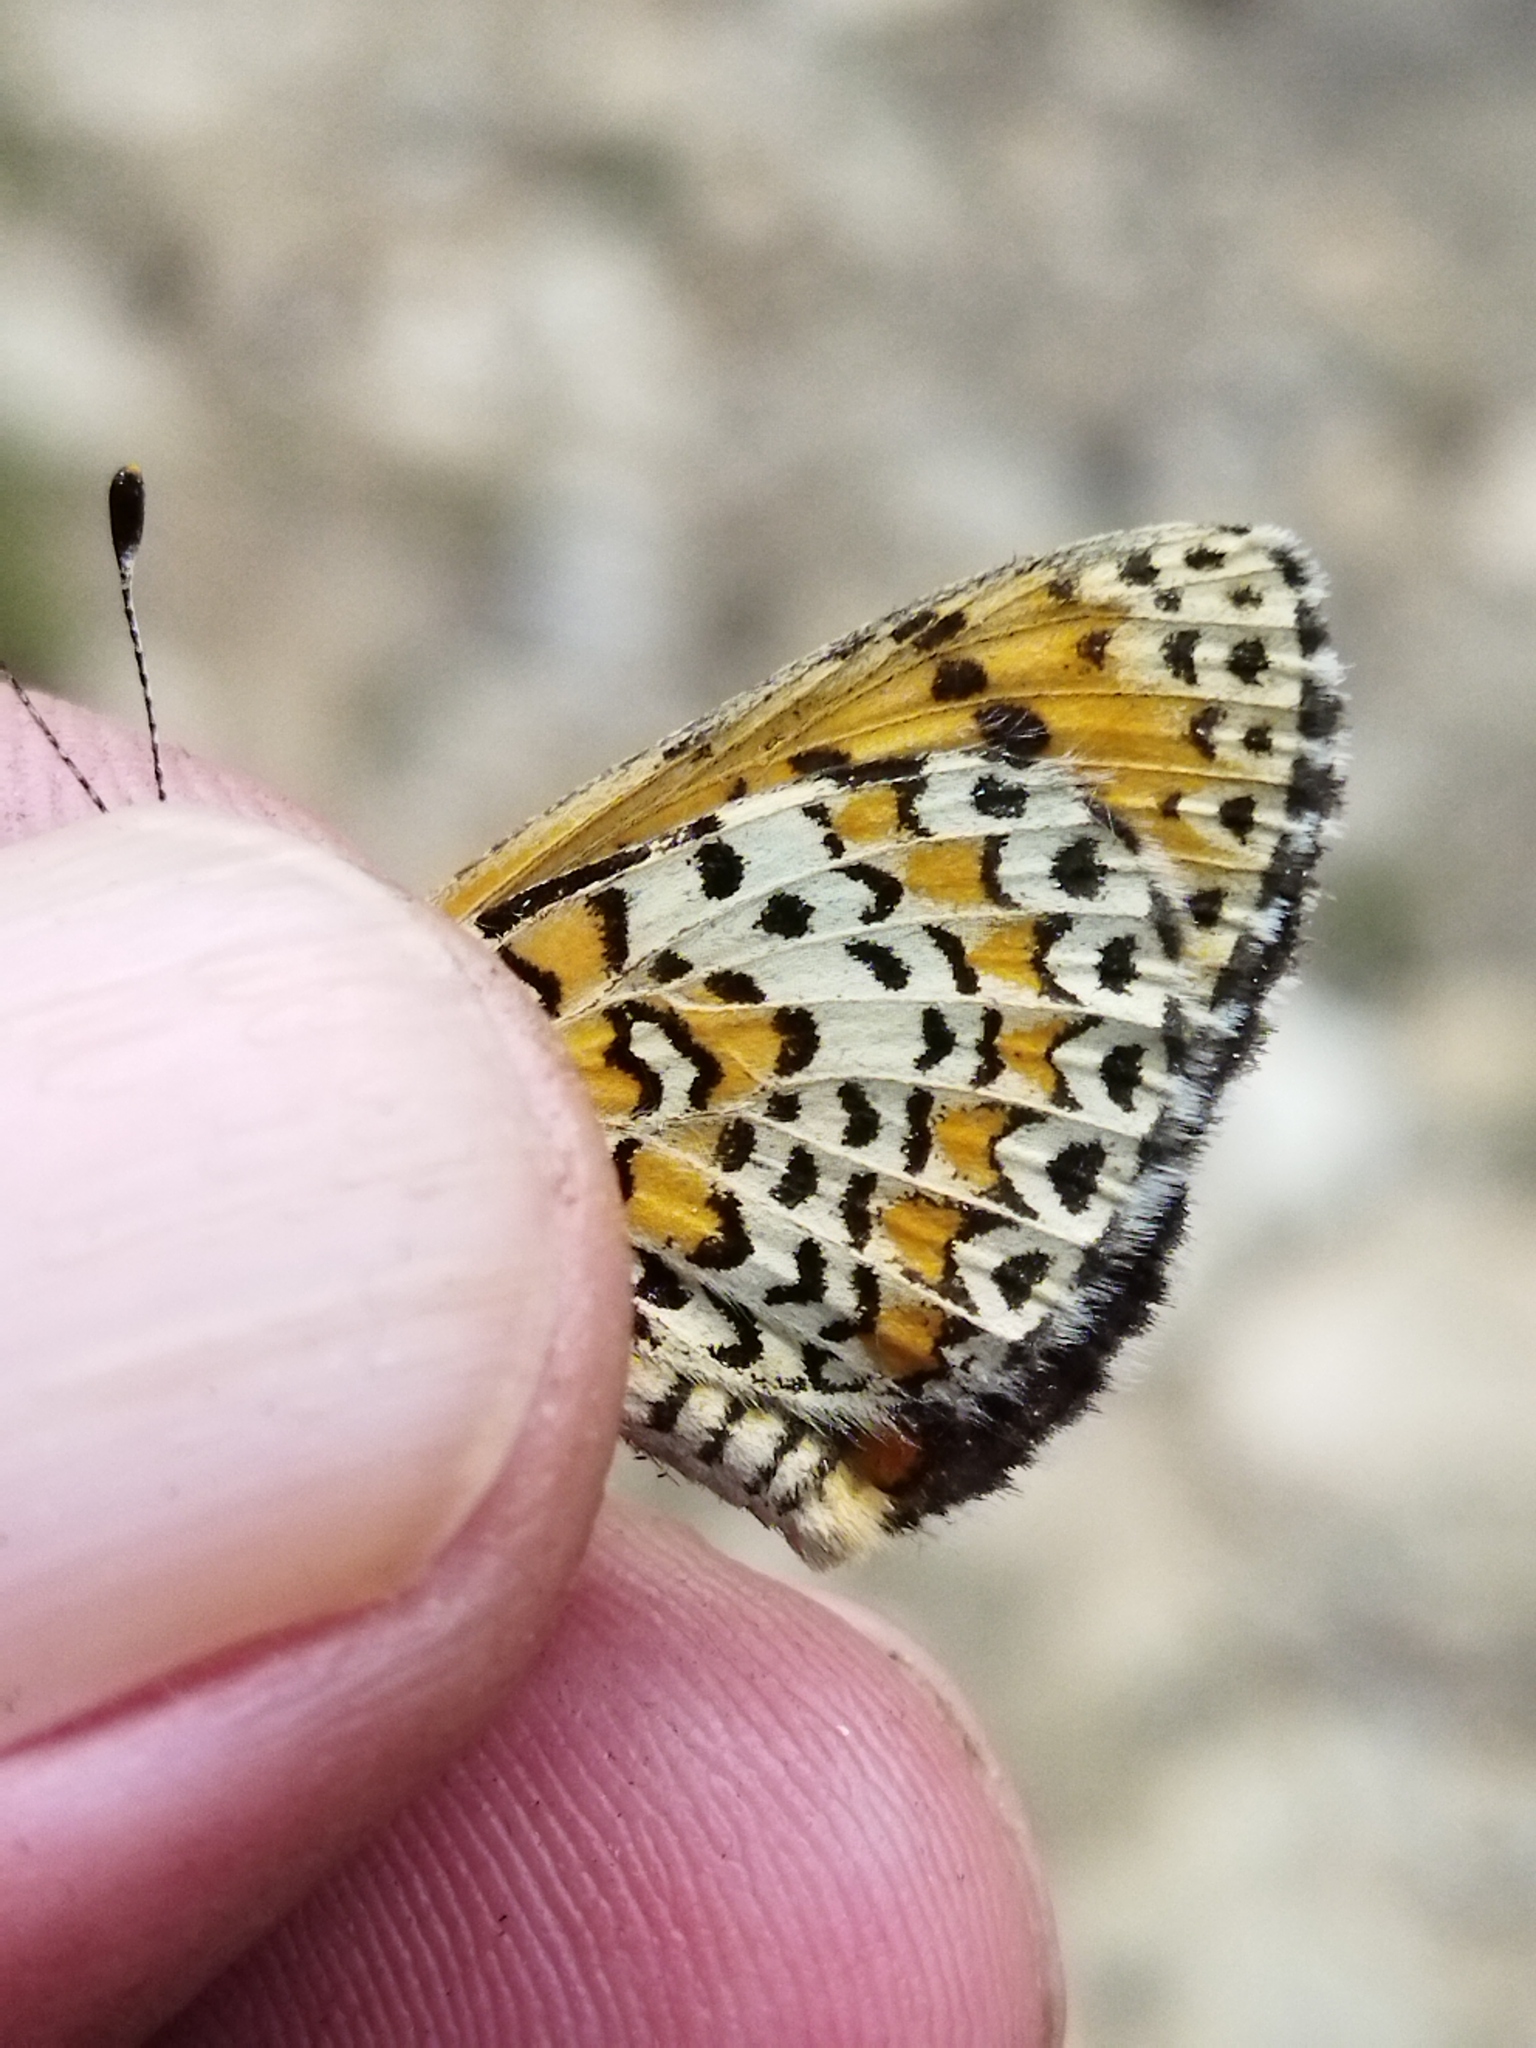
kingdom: Animalia
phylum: Arthropoda
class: Insecta
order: Lepidoptera
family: Nymphalidae
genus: Melitaea
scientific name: Melitaea trivia
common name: Lesser spotted fritillary
